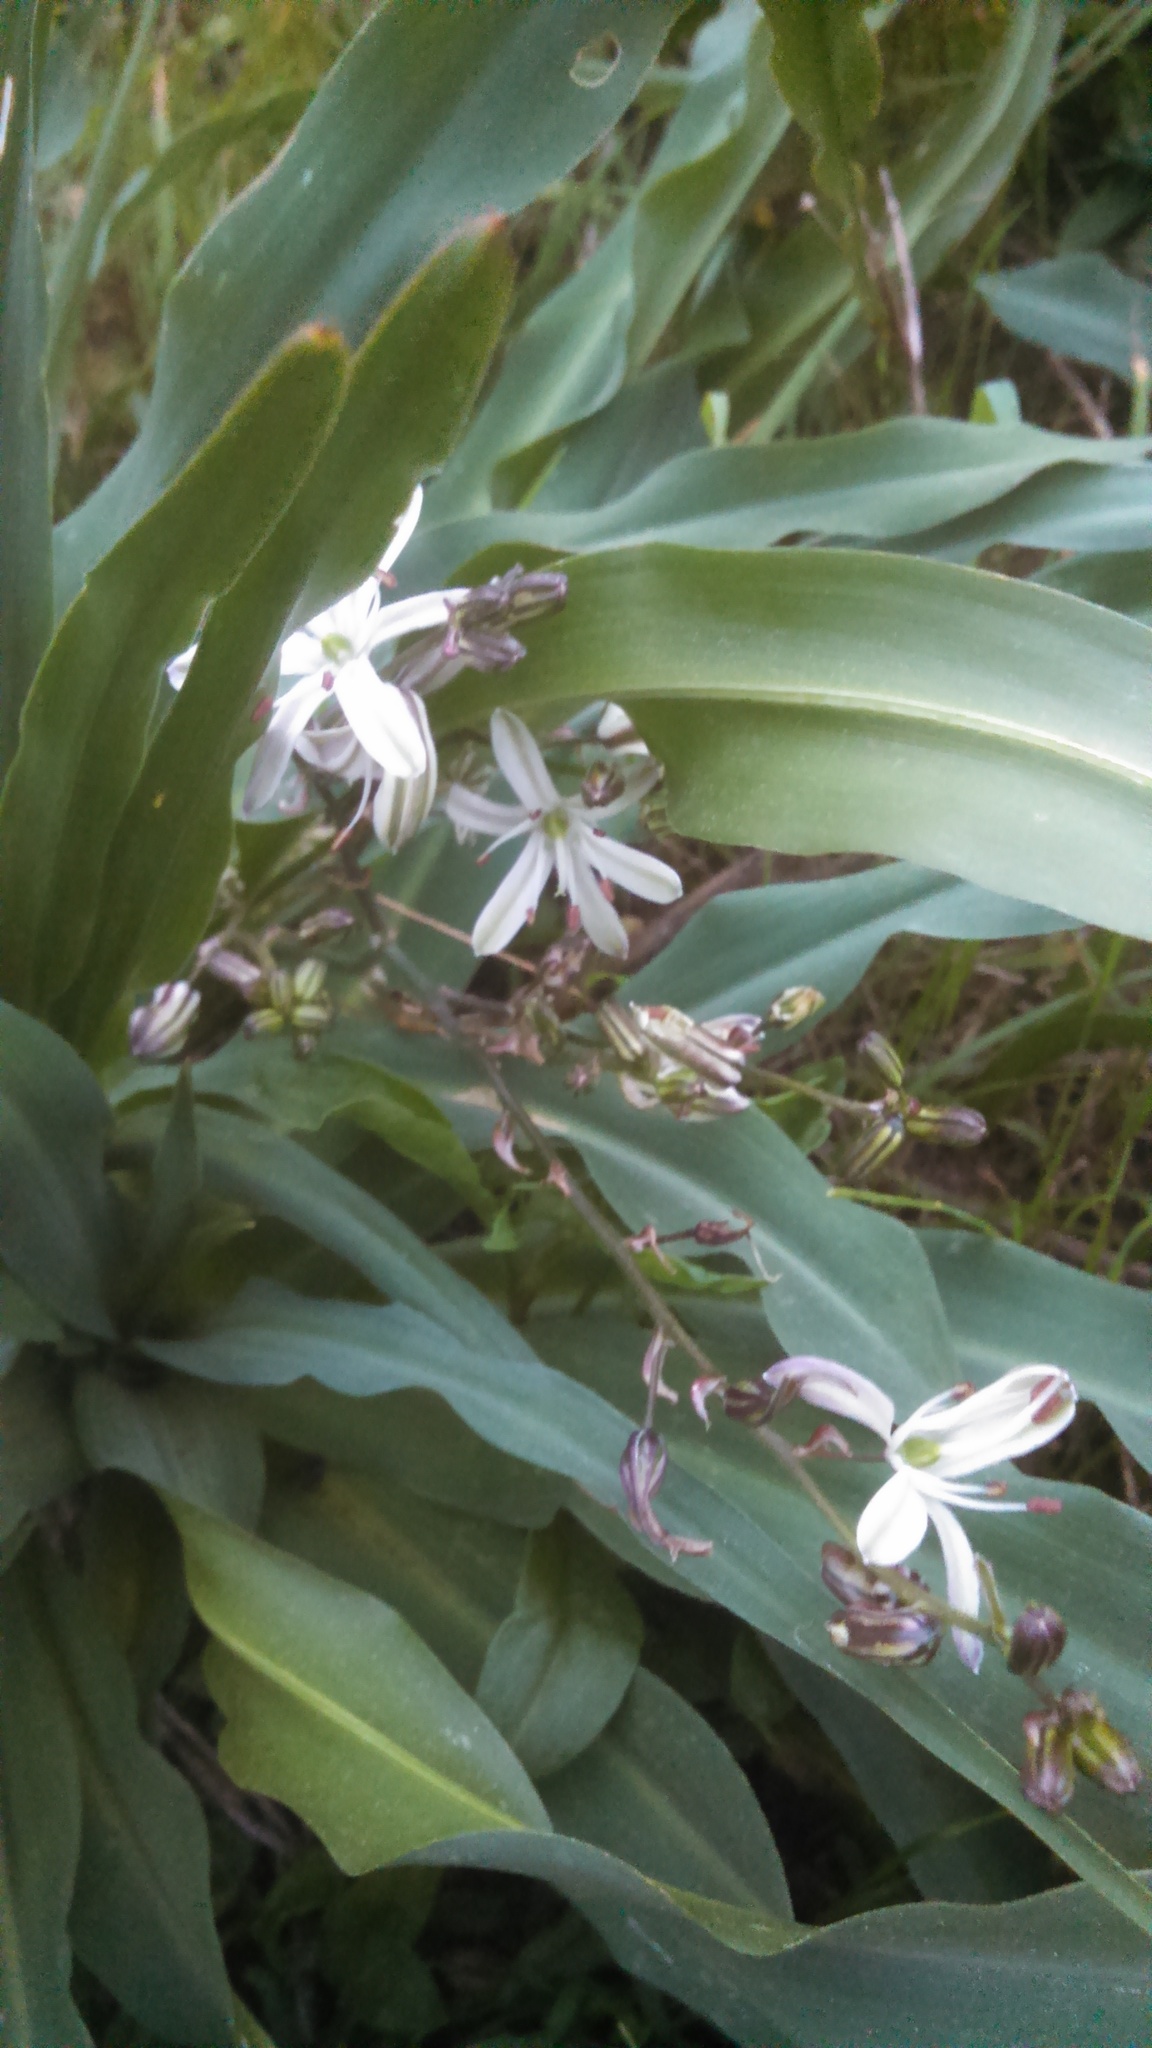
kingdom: Plantae
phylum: Tracheophyta
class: Liliopsida
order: Asparagales
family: Asparagaceae
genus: Chlorogalum
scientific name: Chlorogalum pomeridianum
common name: Amole
